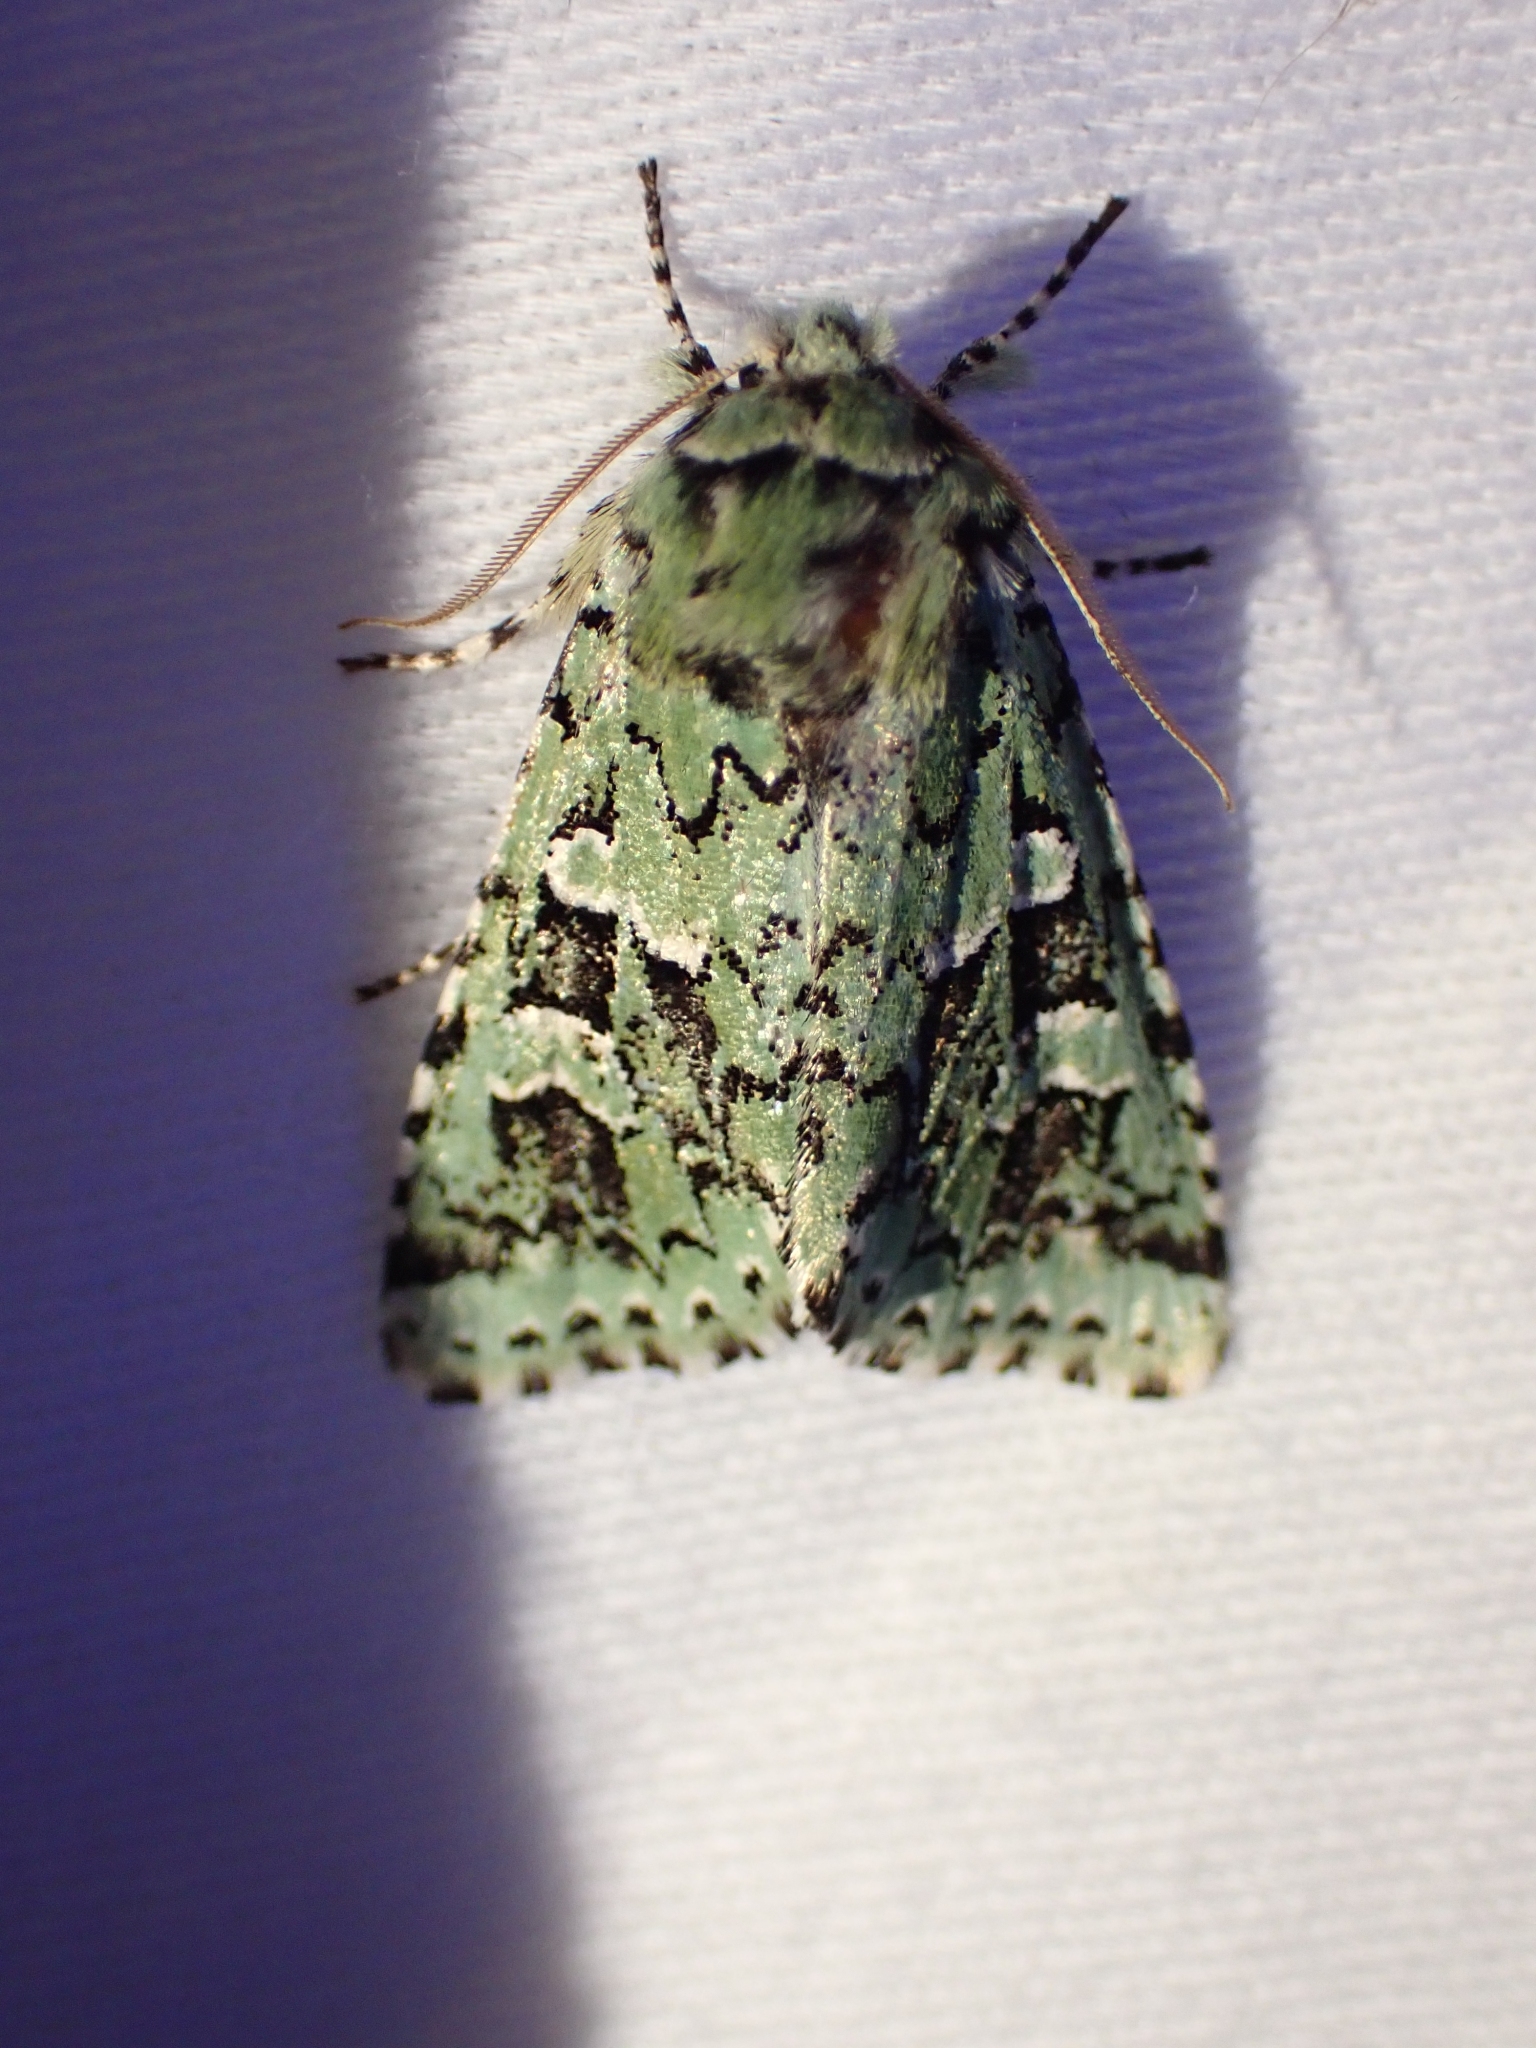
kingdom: Animalia
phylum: Arthropoda
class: Insecta
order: Lepidoptera
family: Noctuidae
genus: Feralia
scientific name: Feralia comstocki
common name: Comstock's sallow
